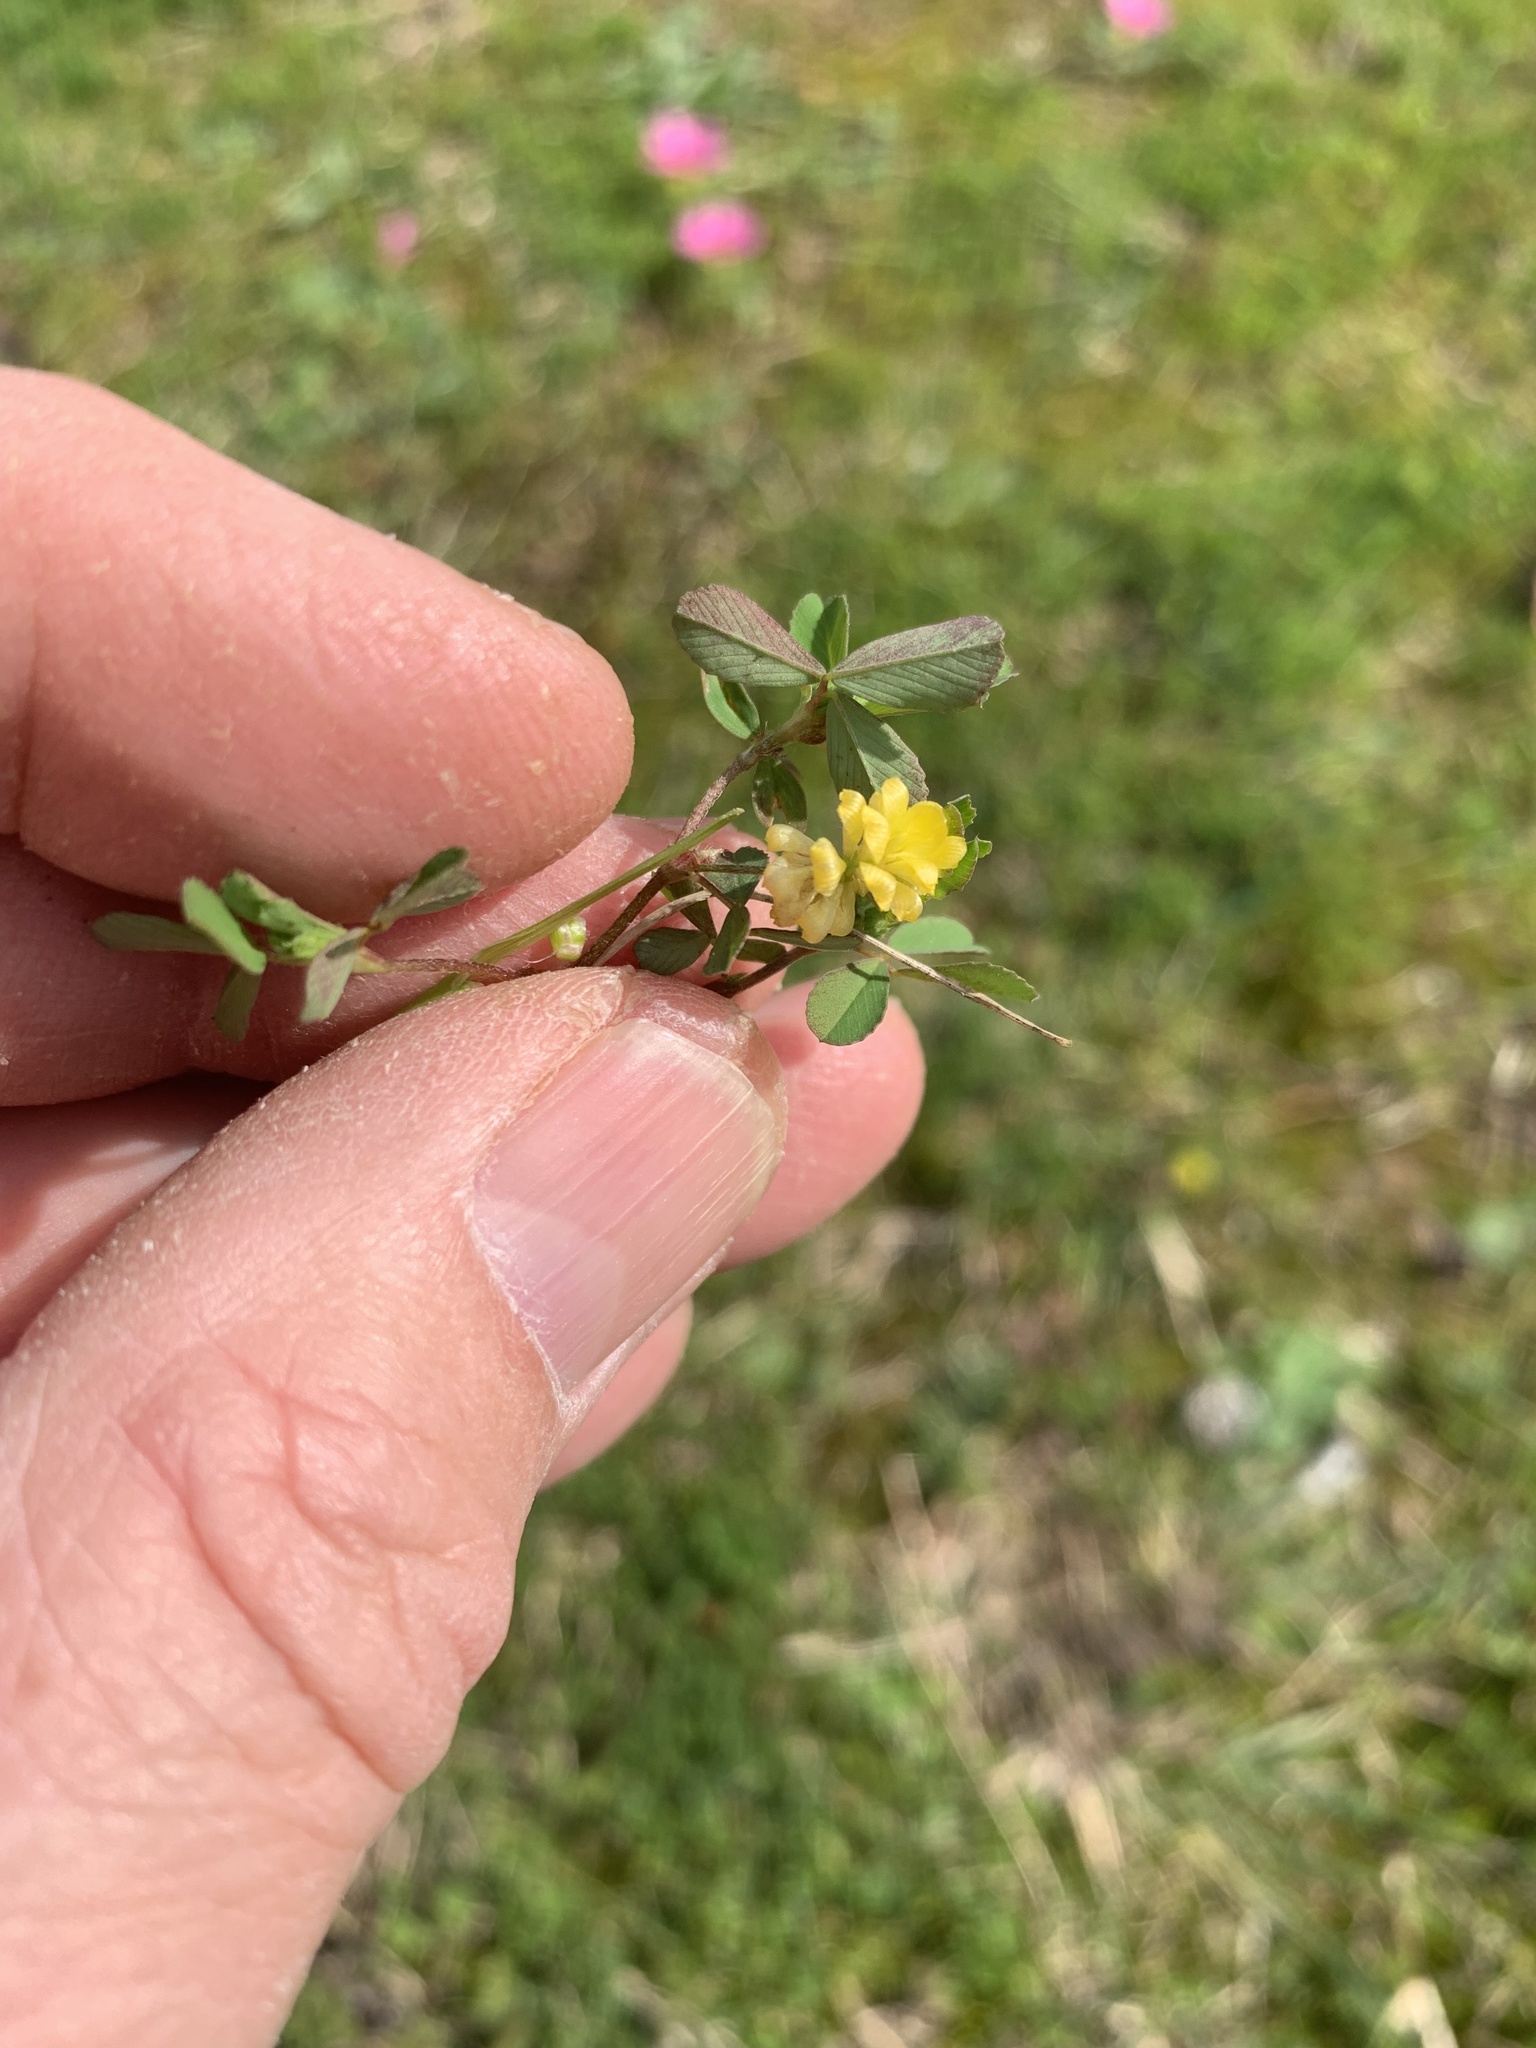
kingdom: Plantae
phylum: Tracheophyta
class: Magnoliopsida
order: Fabales
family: Fabaceae
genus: Trifolium
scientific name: Trifolium campestre
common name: Field clover
